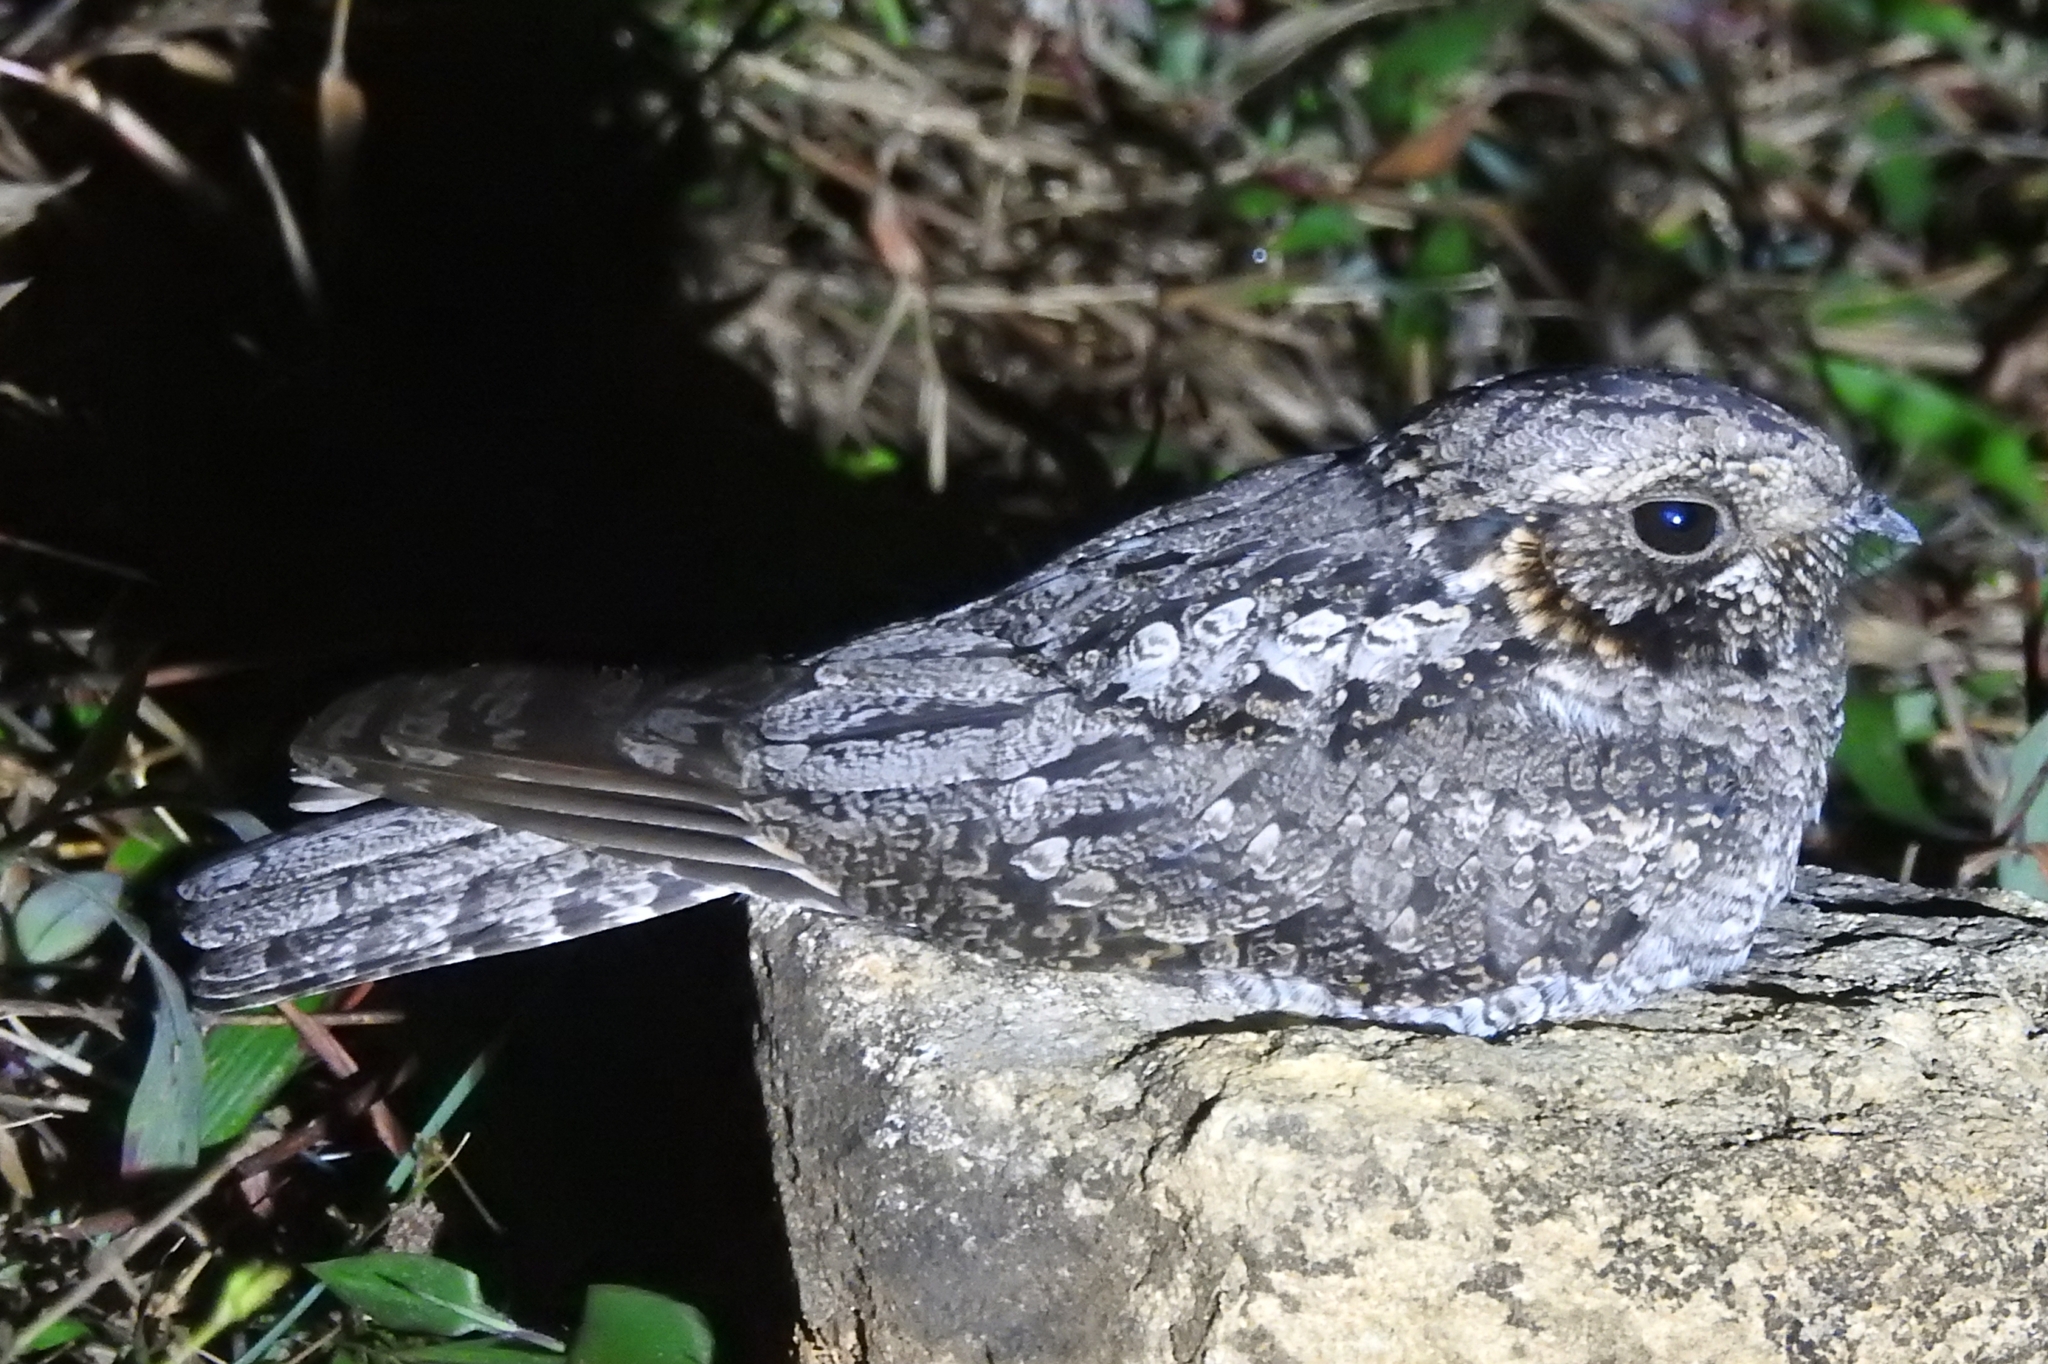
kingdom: Animalia
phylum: Chordata
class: Aves
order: Caprimulgiformes
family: Caprimulgidae
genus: Caprimulgus
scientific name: Caprimulgus indicus
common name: Jungle nightjar
